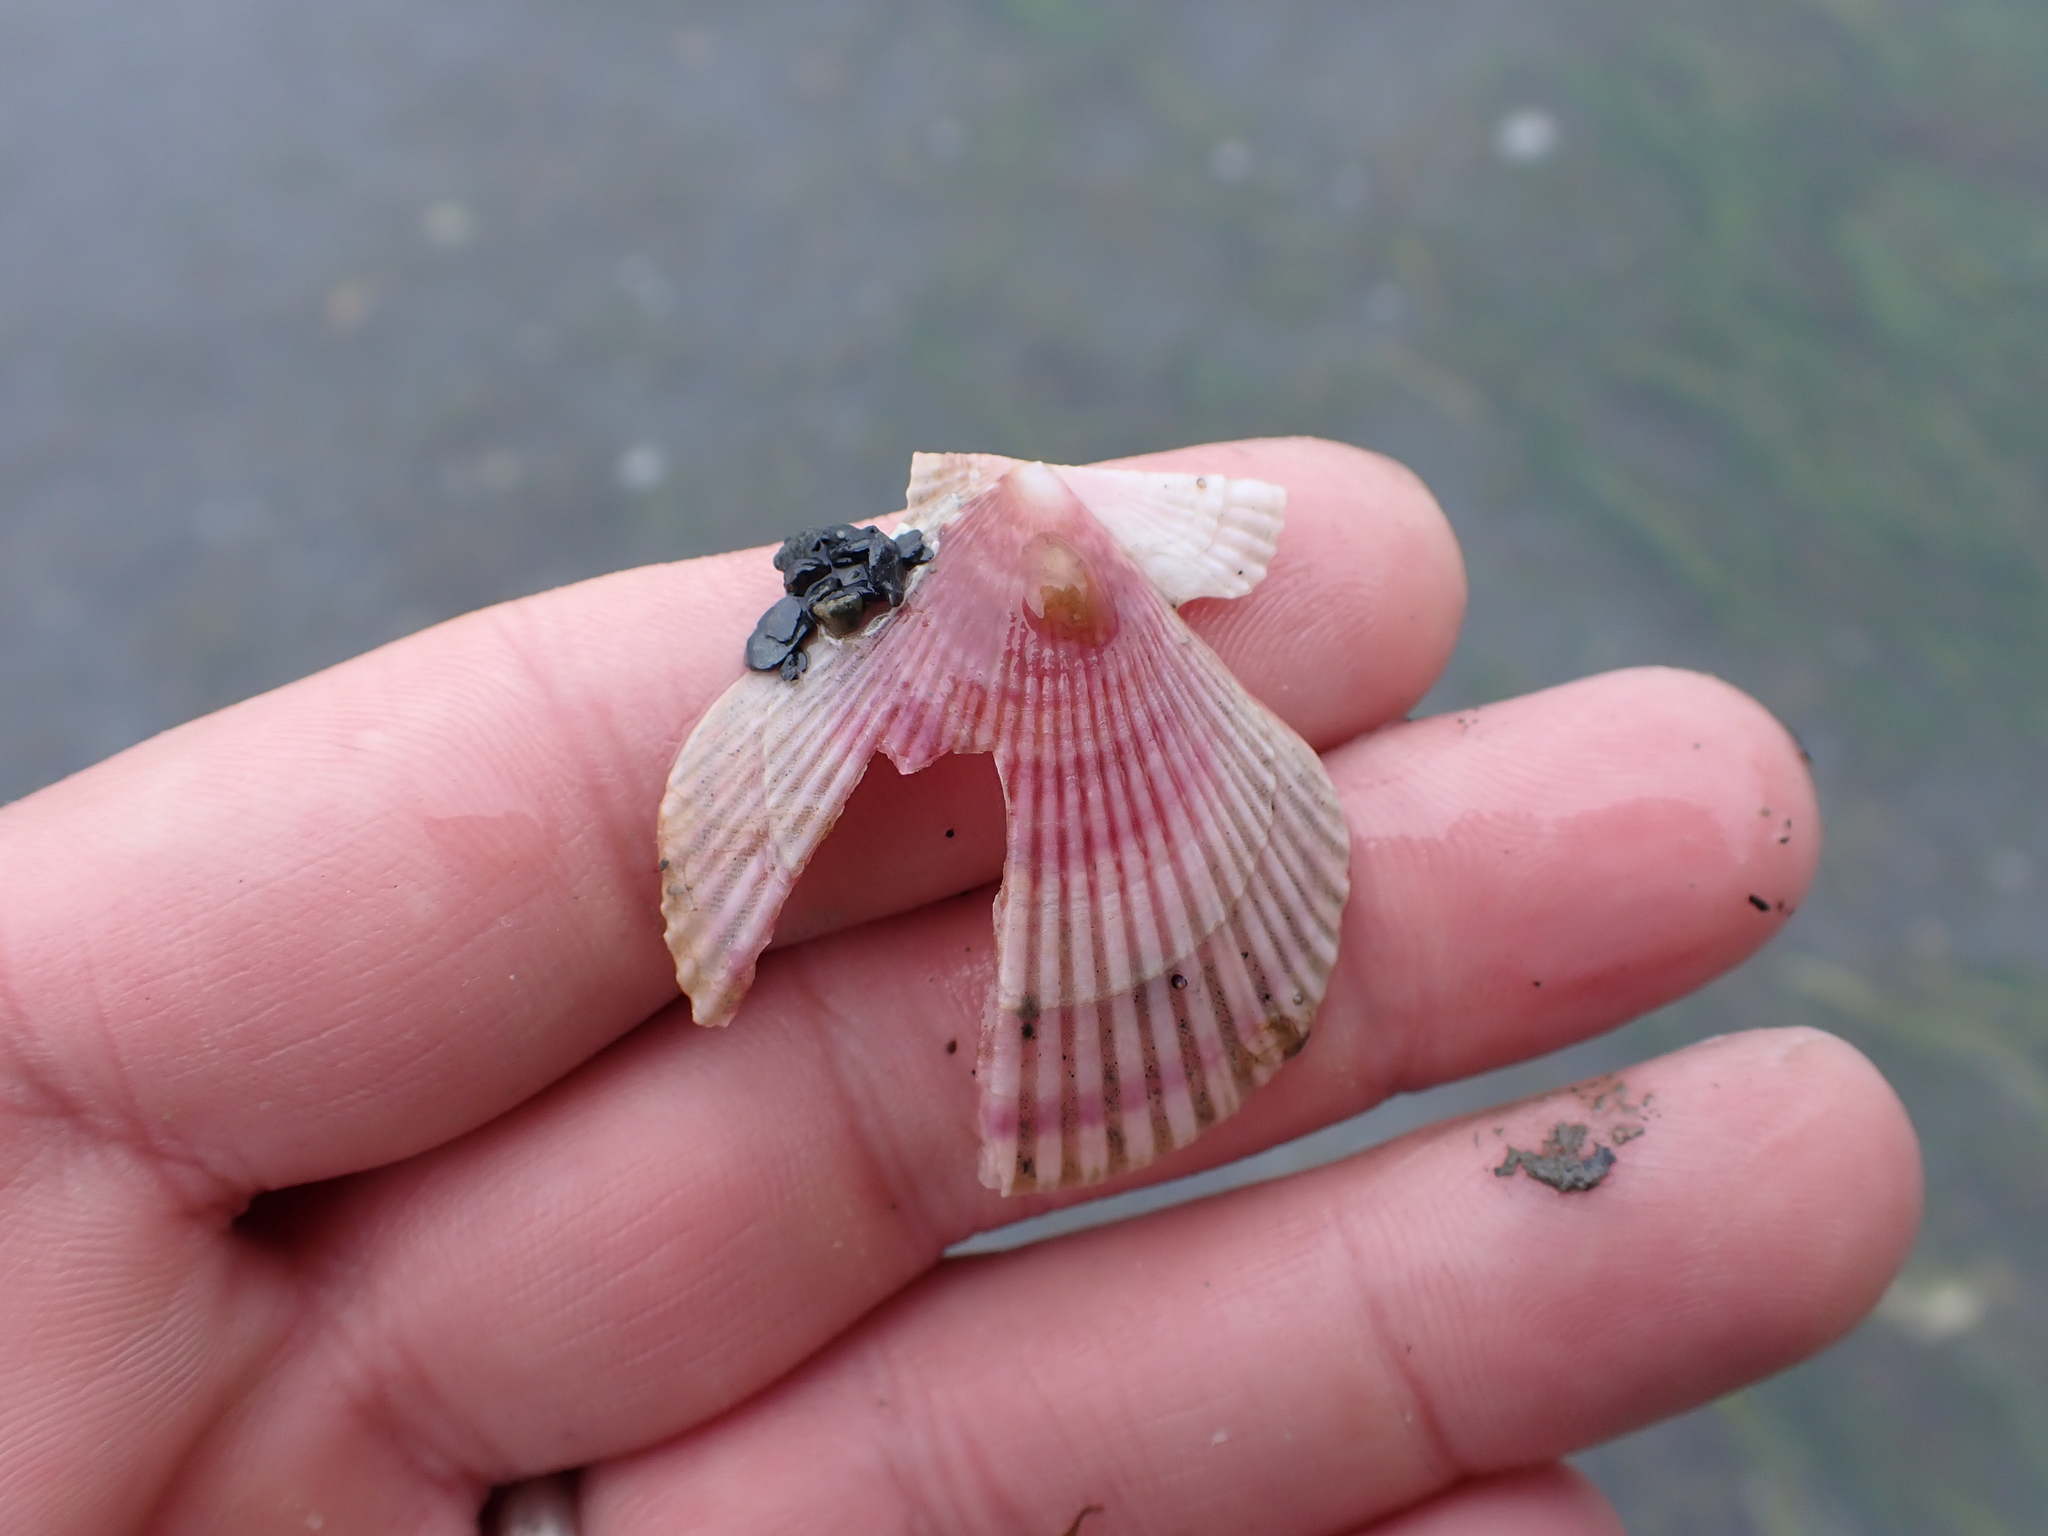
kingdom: Animalia
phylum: Mollusca
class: Bivalvia
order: Pectinida
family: Pectinidae
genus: Chlamys
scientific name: Chlamys rubida
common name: Pacific pink scallop
